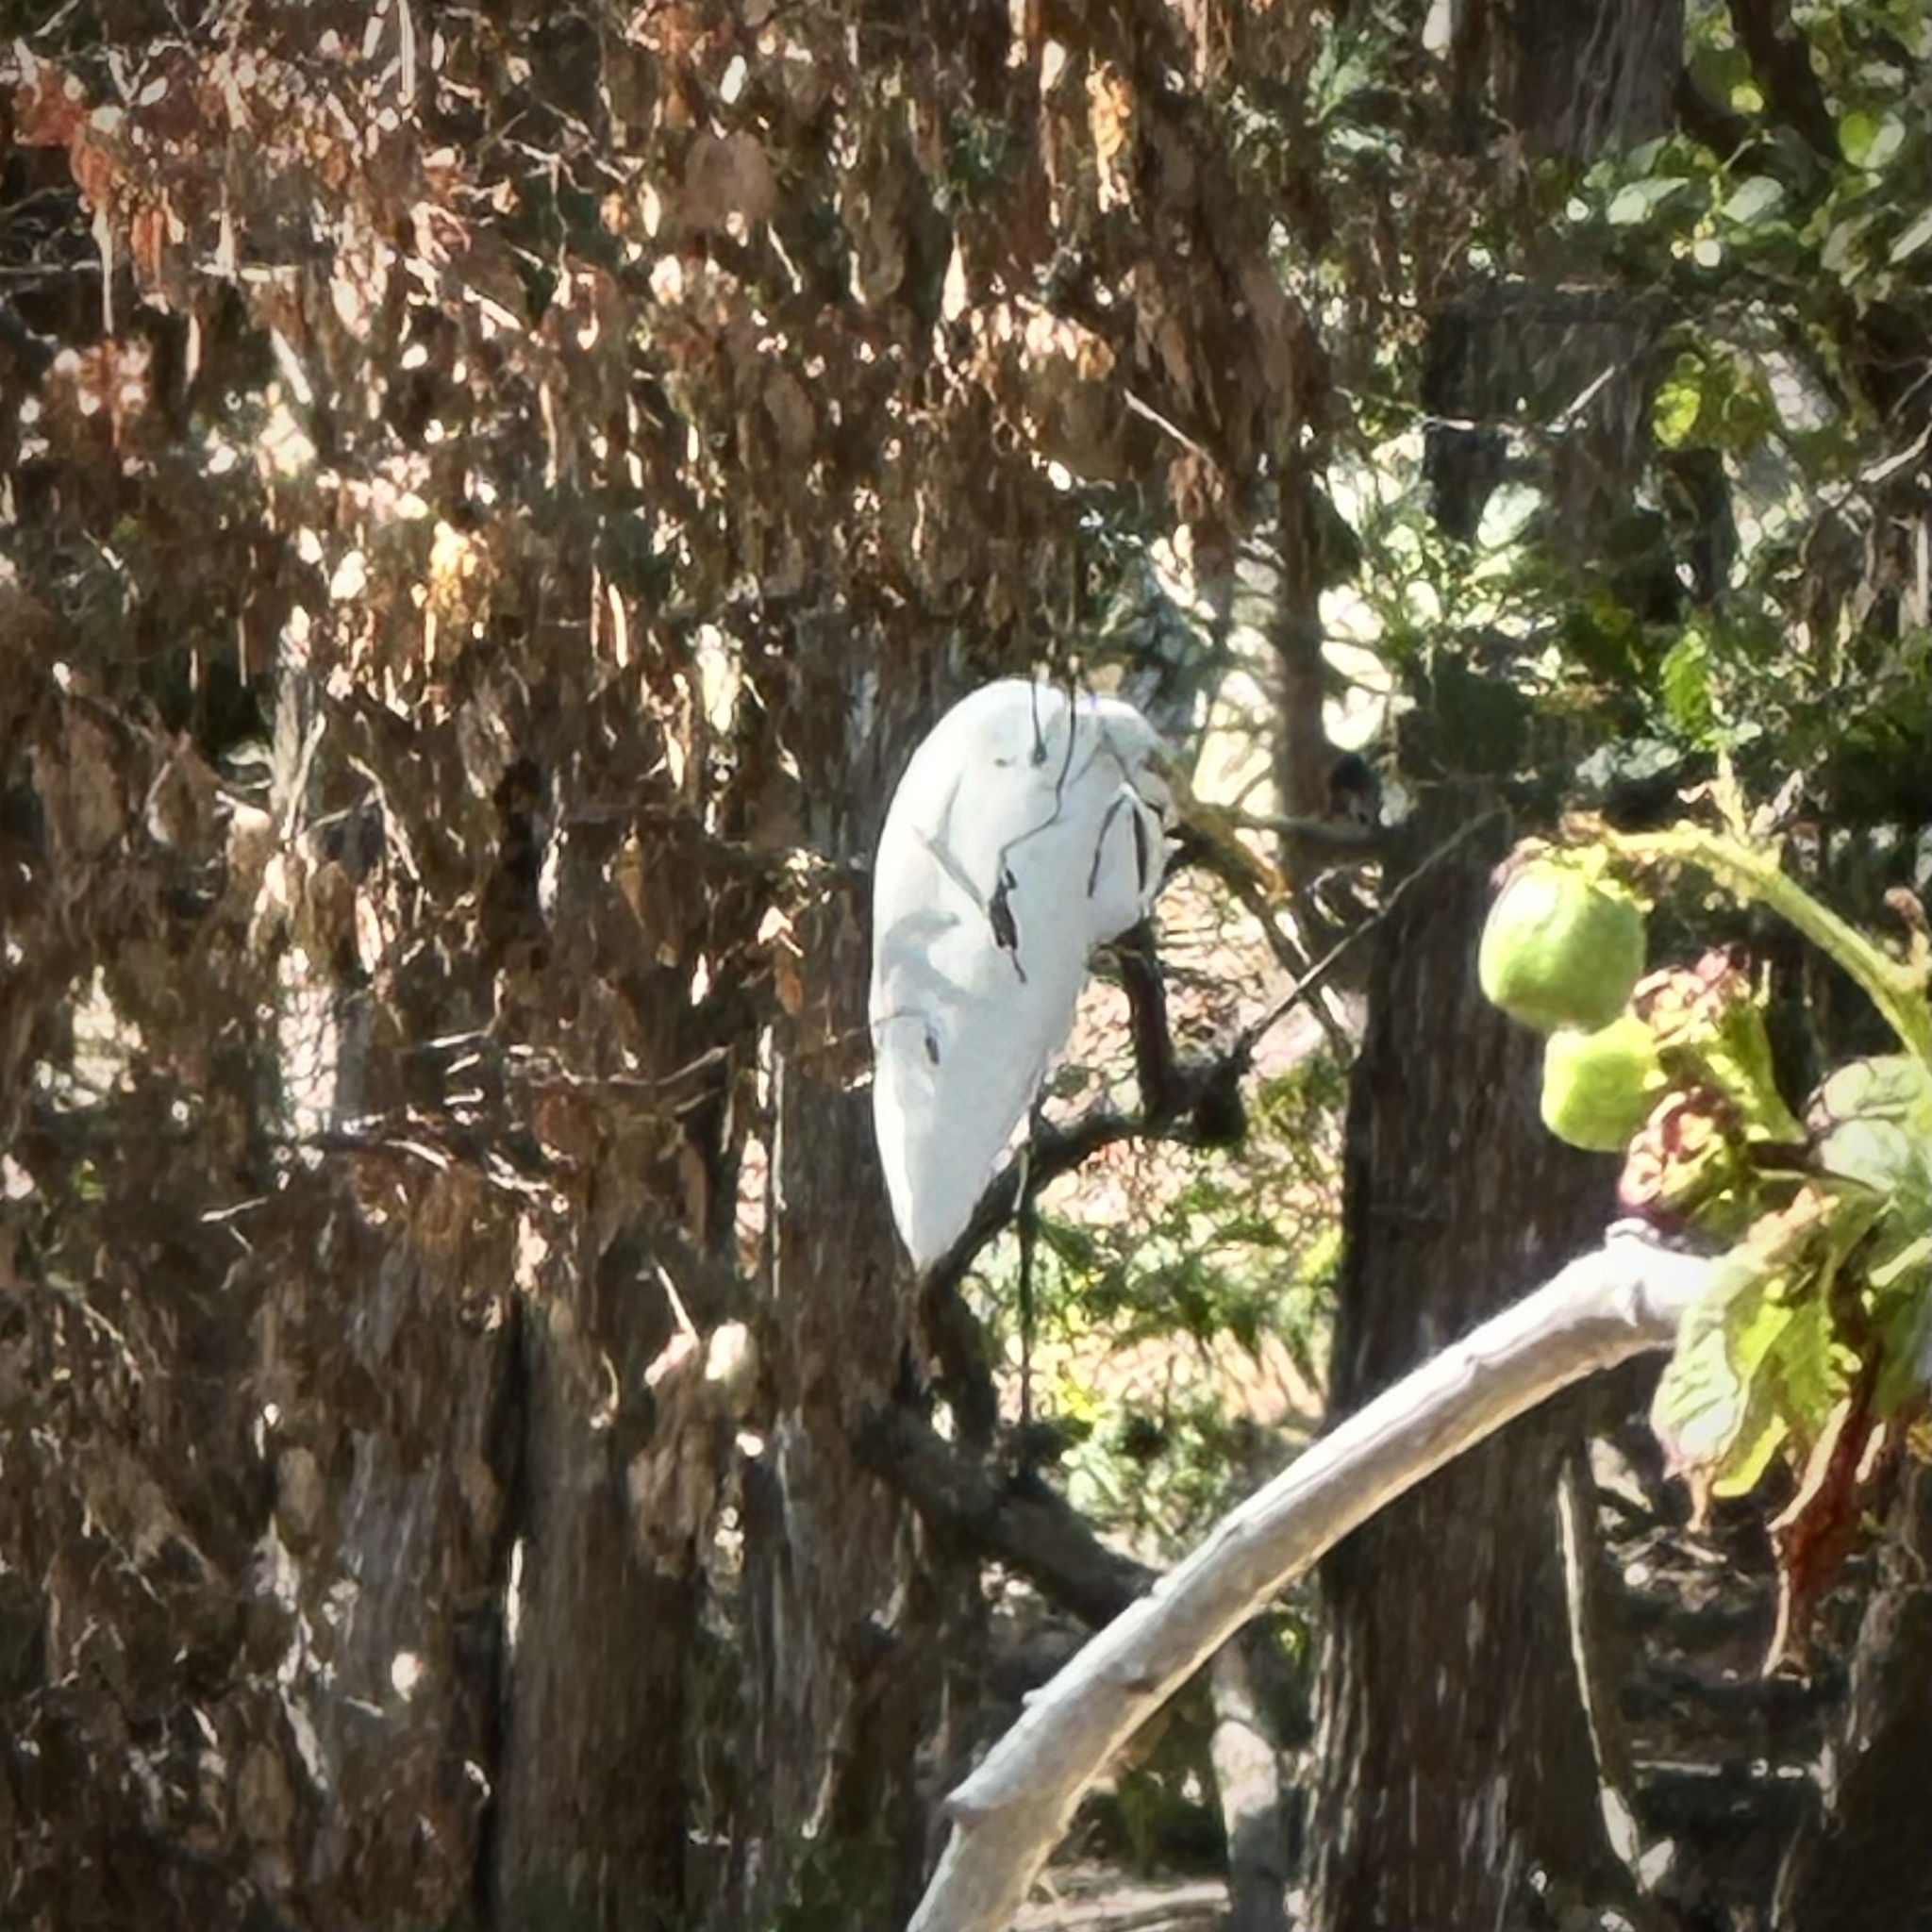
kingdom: Animalia
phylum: Chordata
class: Aves
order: Pelecaniformes
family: Ardeidae
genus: Ardea
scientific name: Ardea alba
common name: Great egret
